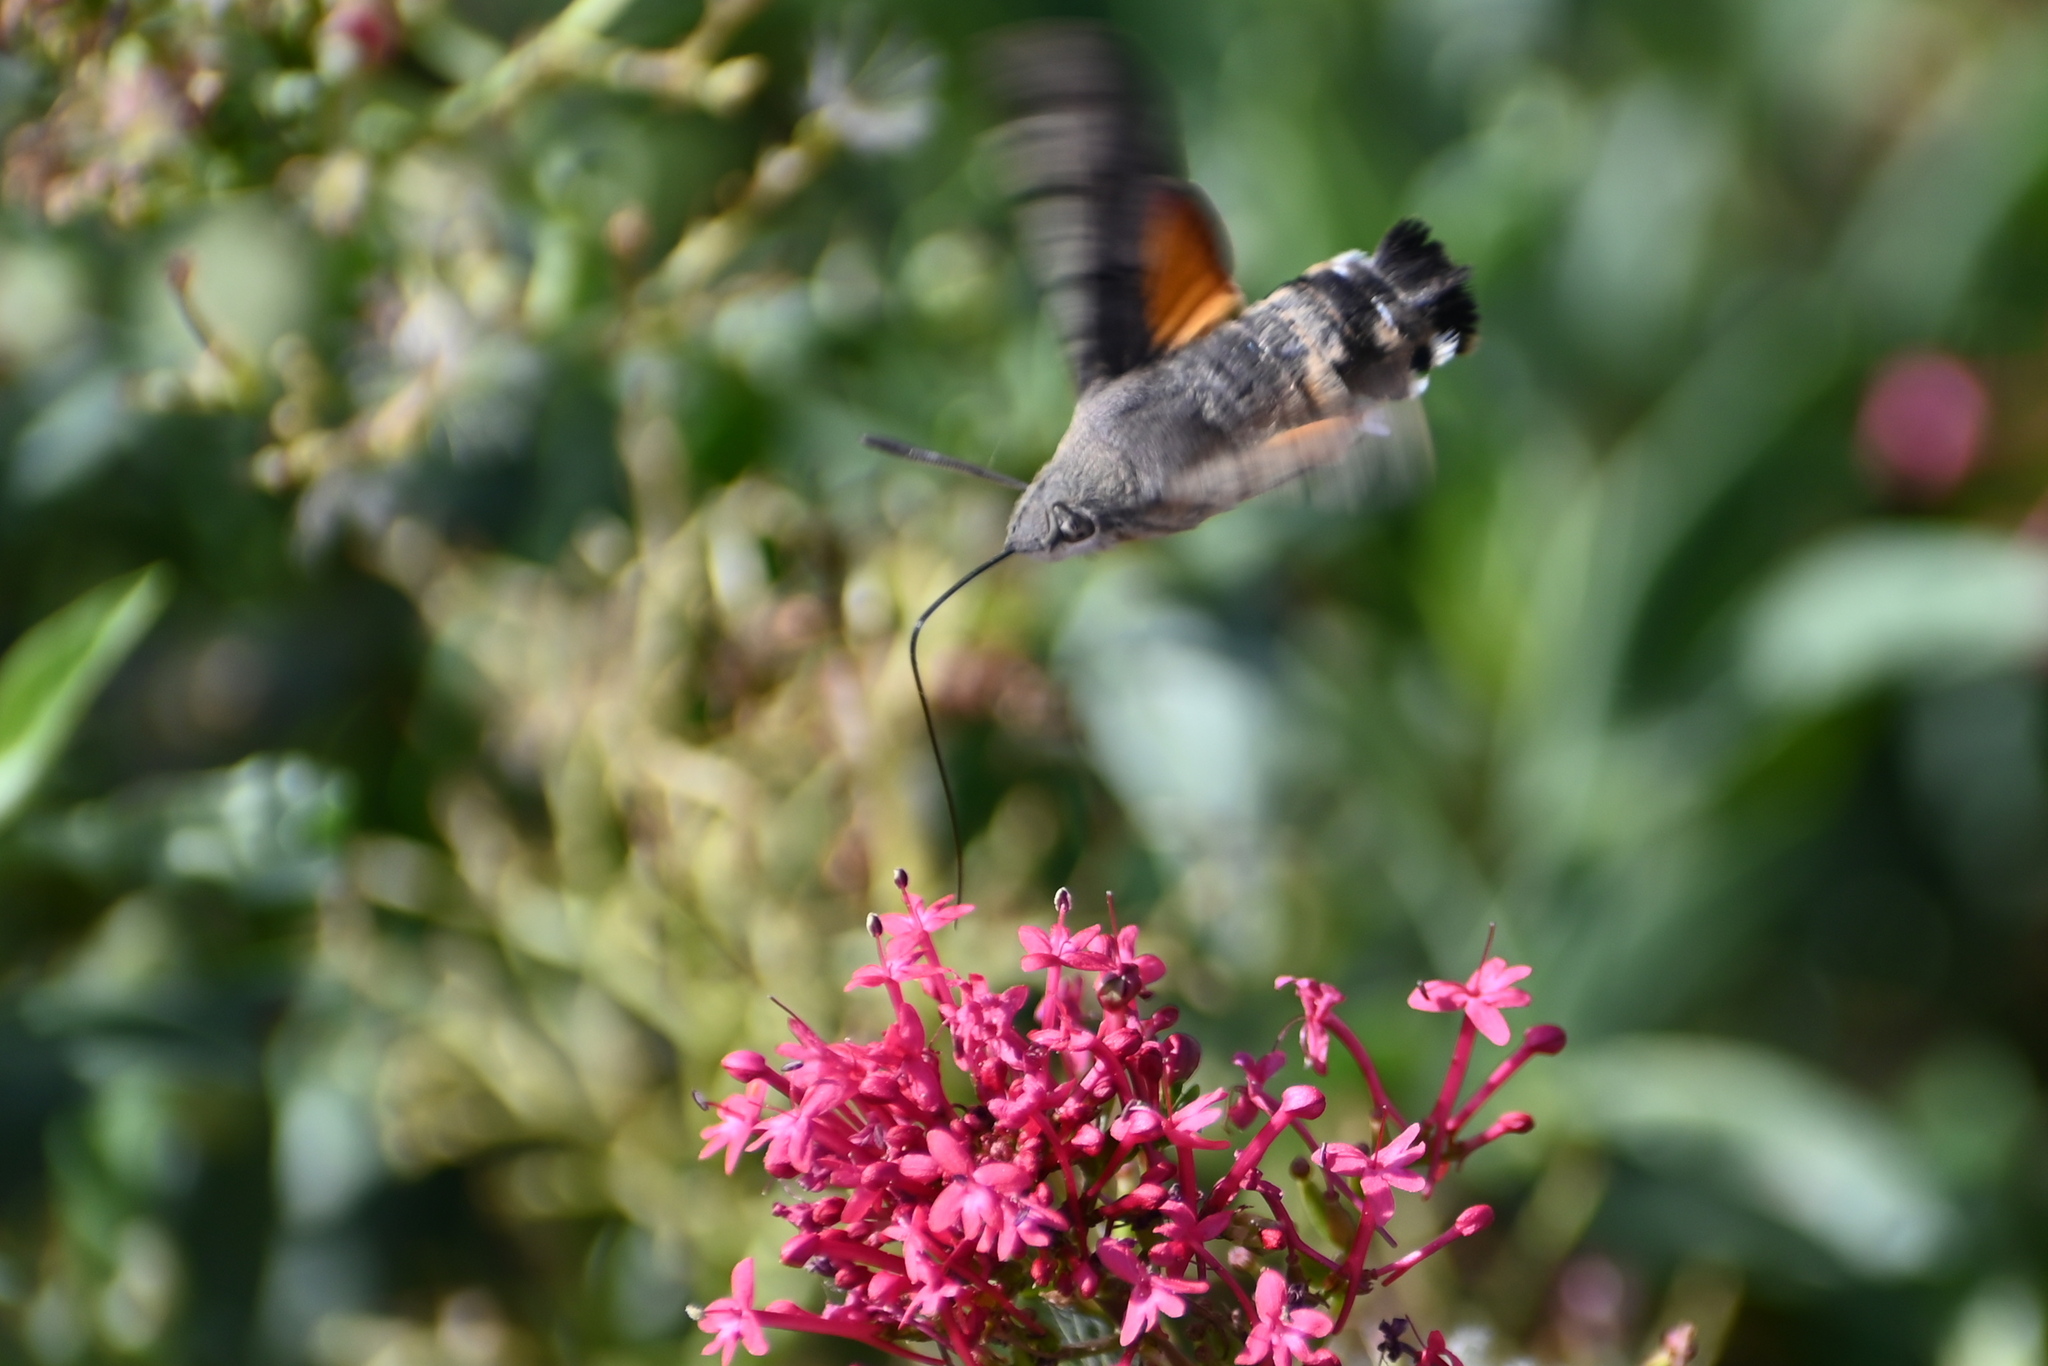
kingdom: Animalia
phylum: Arthropoda
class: Insecta
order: Lepidoptera
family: Sphingidae
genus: Macroglossum
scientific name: Macroglossum stellatarum
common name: Humming-bird hawk-moth
